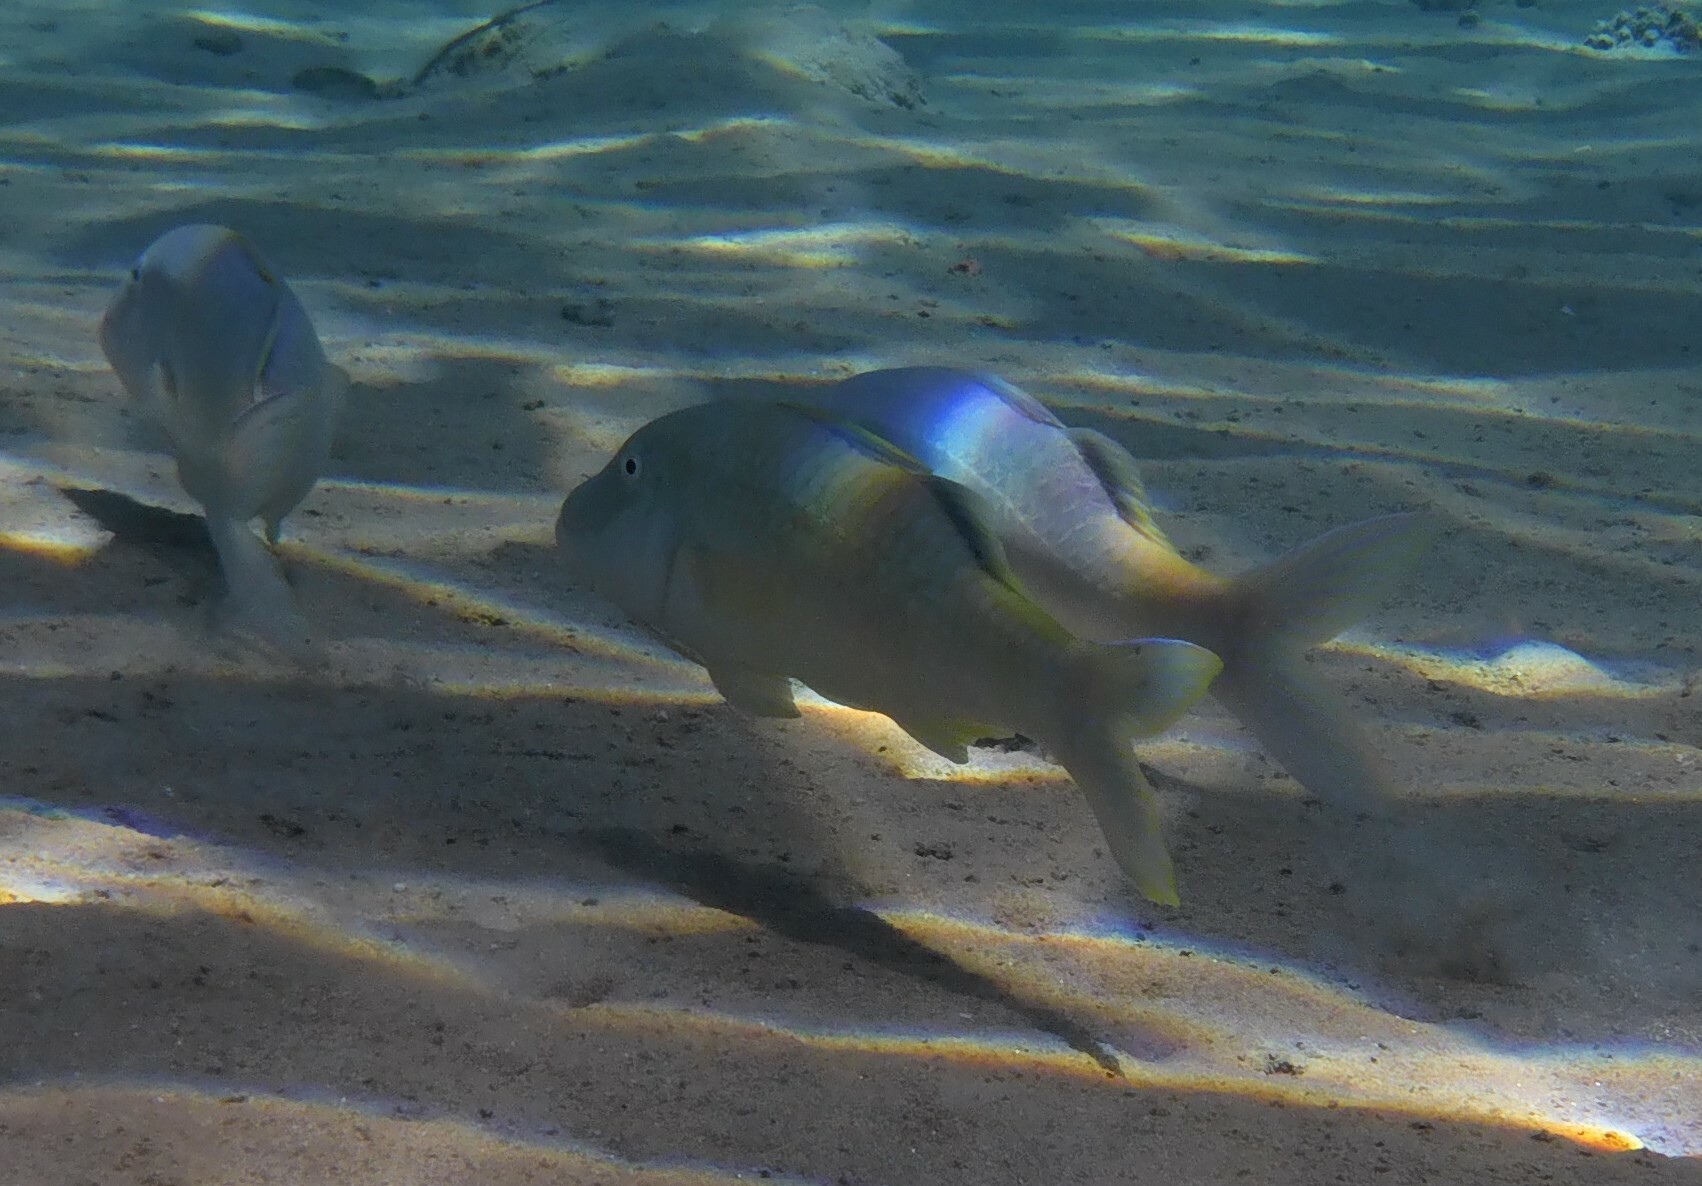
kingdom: Animalia
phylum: Chordata
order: Perciformes
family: Mullidae
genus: Parupeneus
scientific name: Parupeneus cyclostomus
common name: Goldsaddle goatfish
